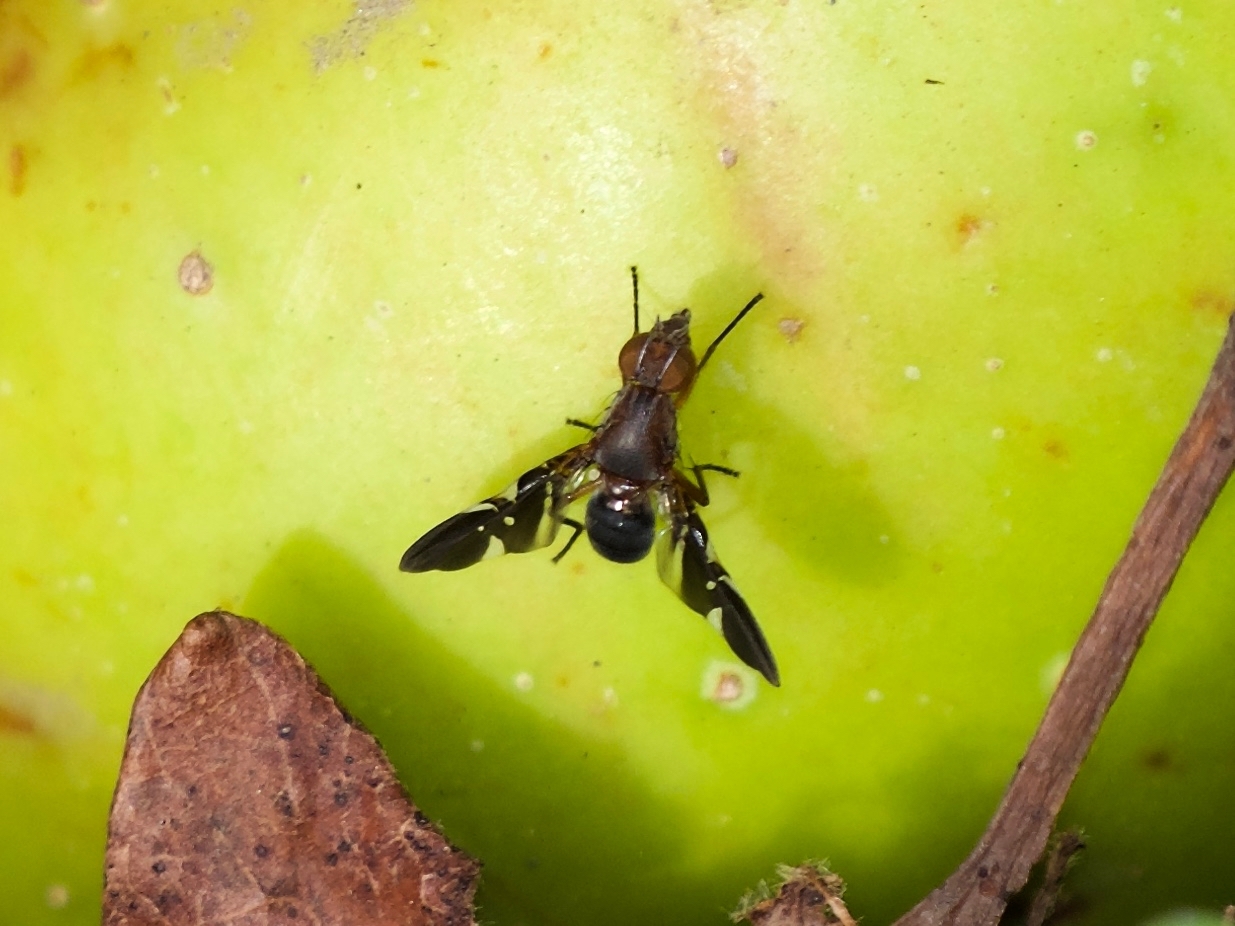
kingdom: Animalia
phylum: Arthropoda
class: Insecta
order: Diptera
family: Ulidiidae
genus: Delphinia
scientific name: Delphinia picta
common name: Common picture-winged fly
